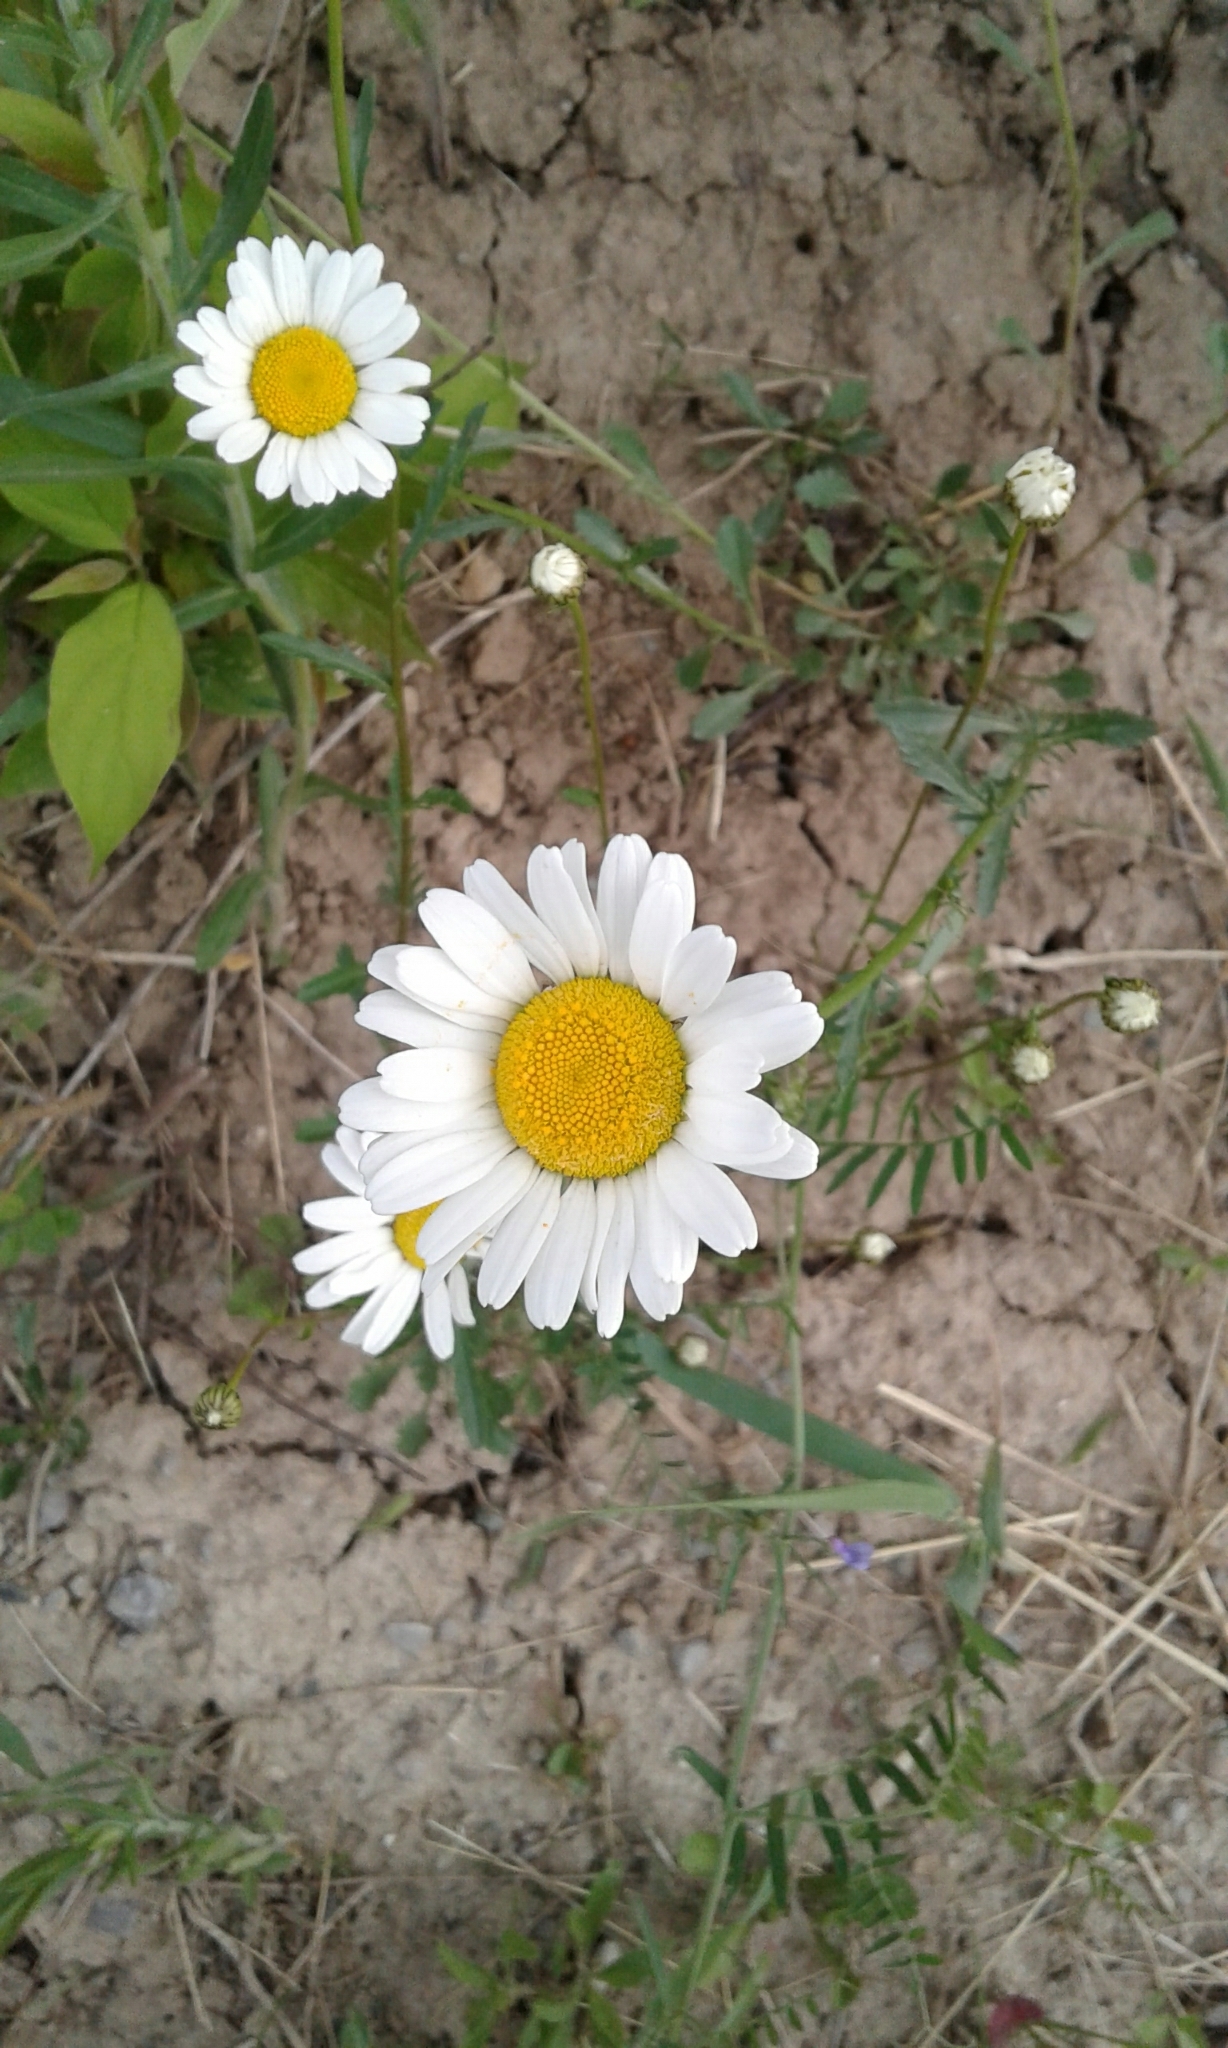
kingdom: Plantae
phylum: Tracheophyta
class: Magnoliopsida
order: Asterales
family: Asteraceae
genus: Leucanthemum
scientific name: Leucanthemum vulgare
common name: Oxeye daisy
